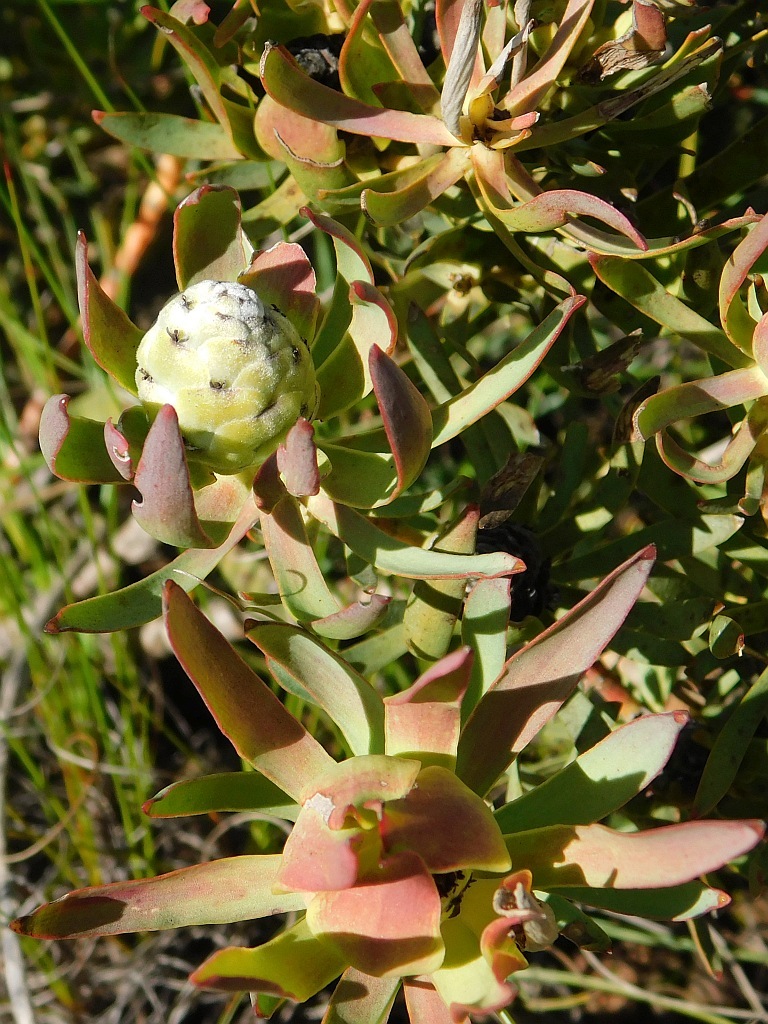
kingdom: Plantae
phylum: Tracheophyta
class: Magnoliopsida
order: Proteales
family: Proteaceae
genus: Leucadendron
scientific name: Leucadendron salignum
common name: Common sunshine conebush
